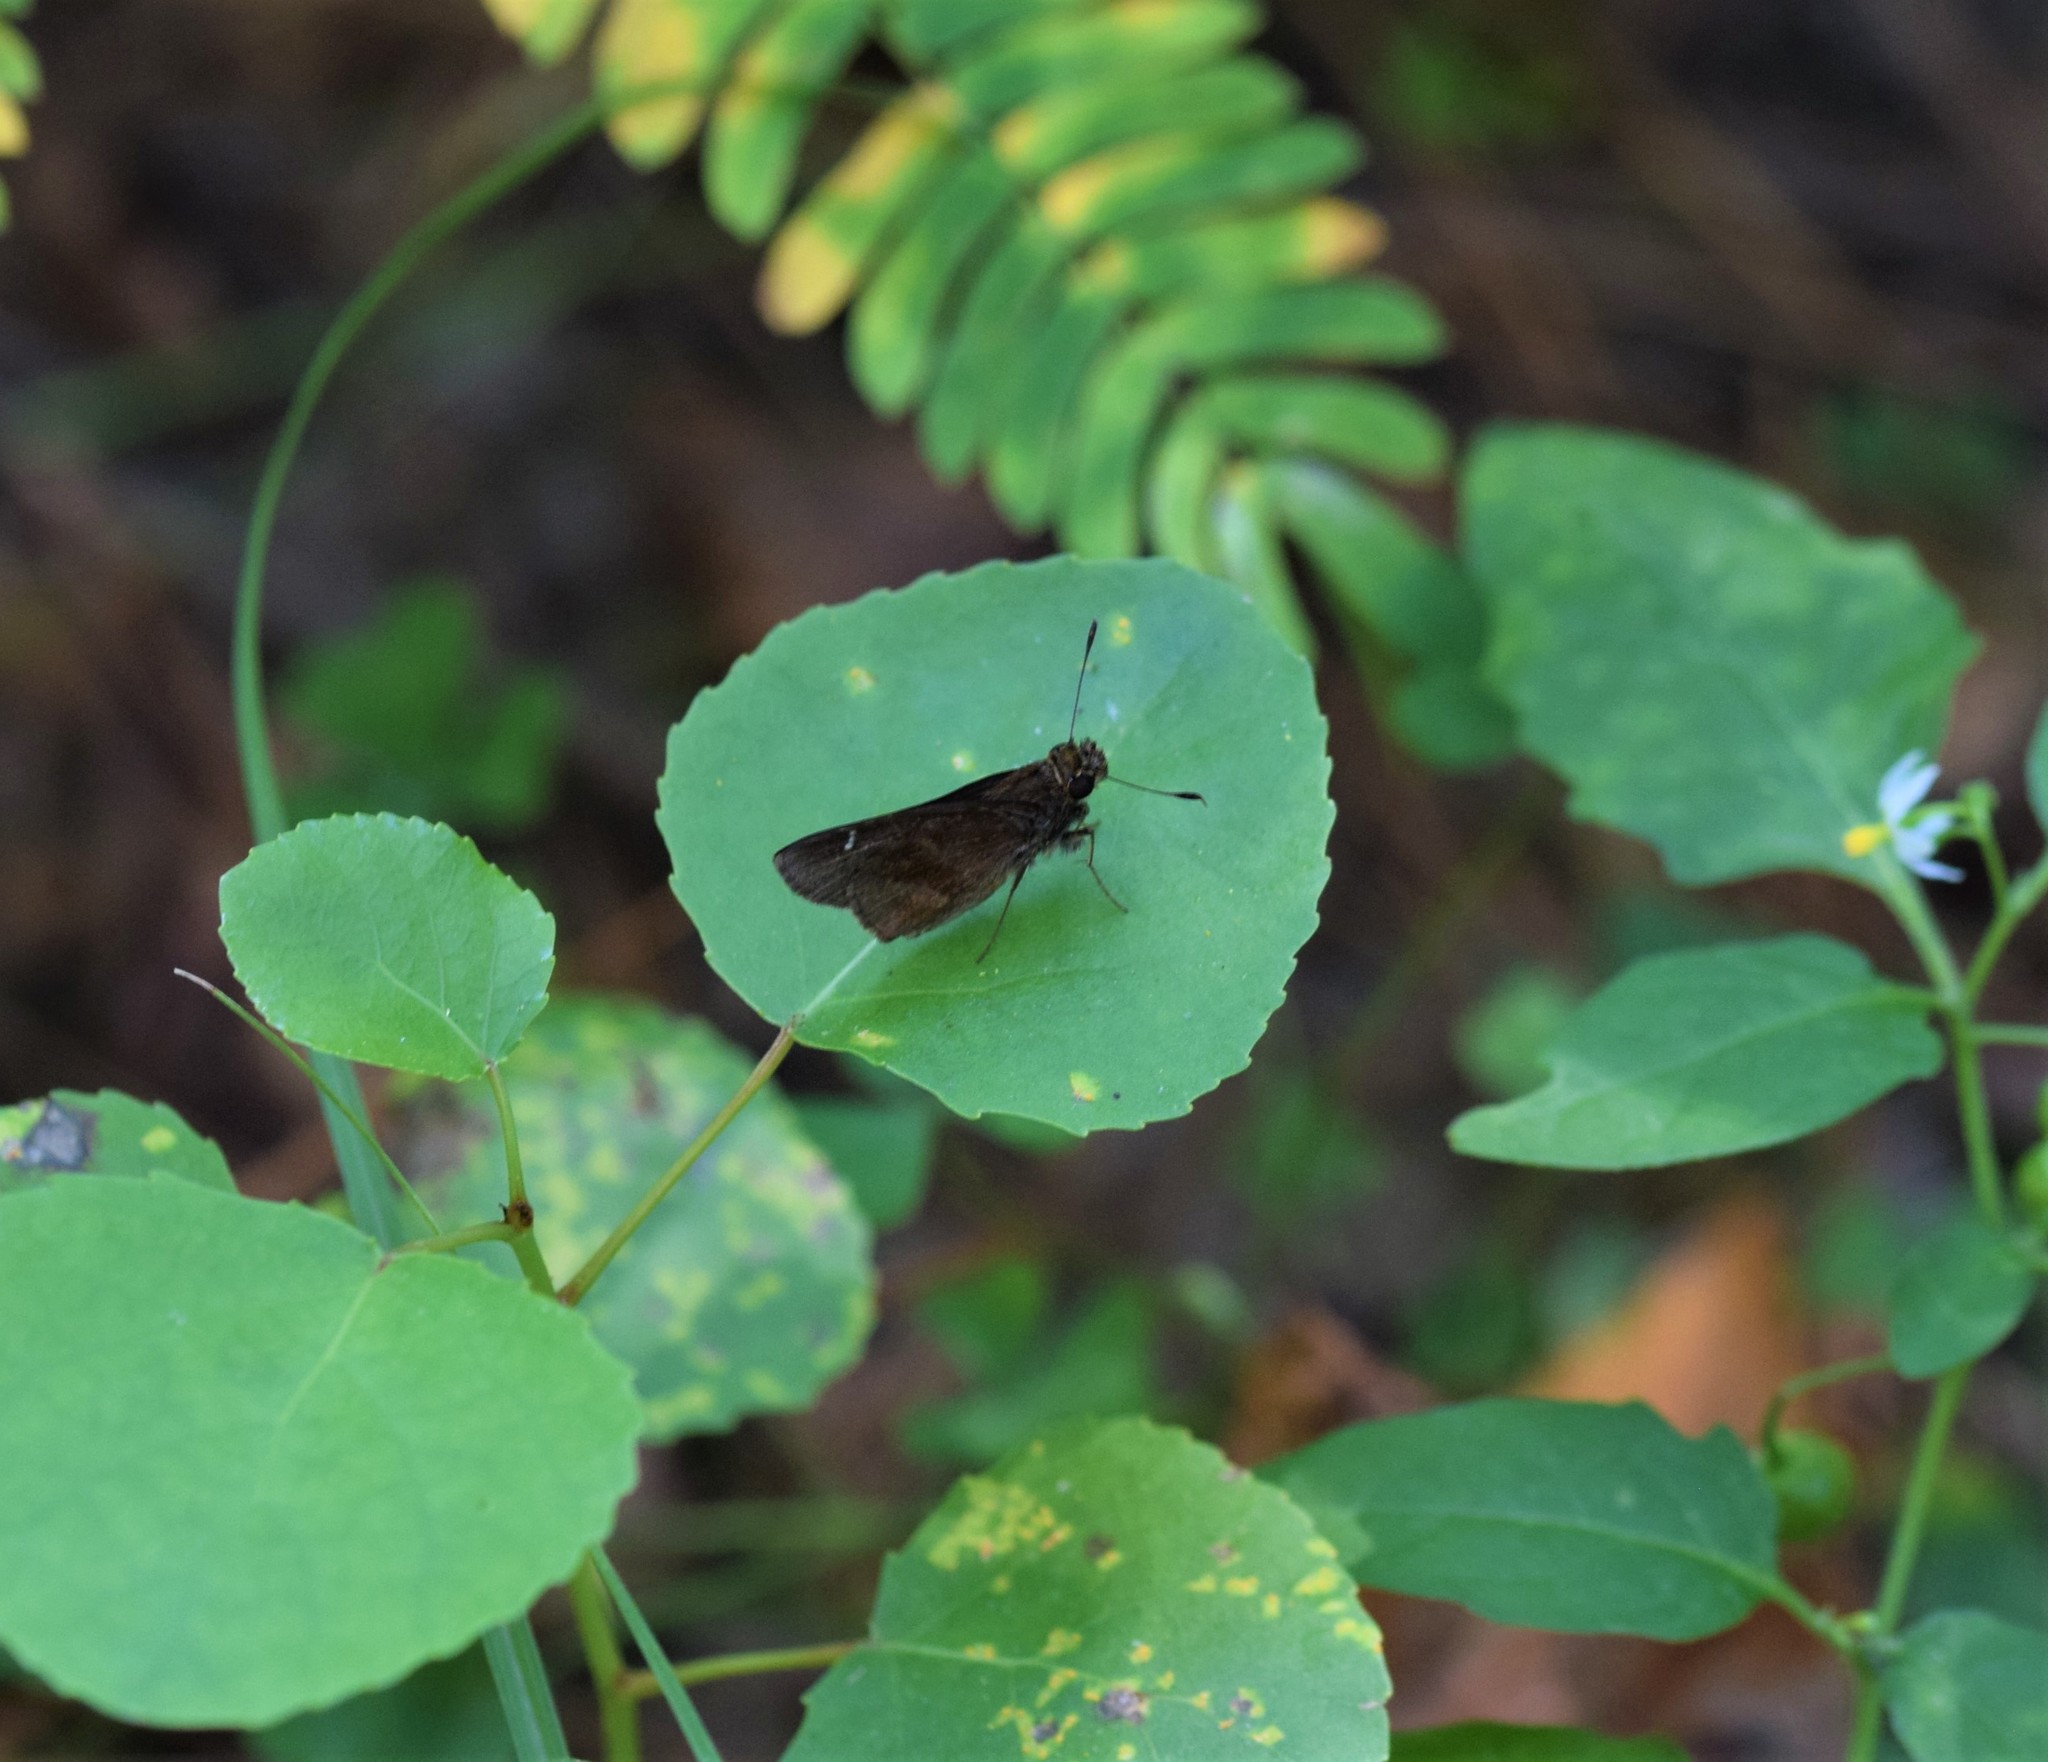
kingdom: Animalia
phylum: Arthropoda
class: Insecta
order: Lepidoptera
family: Hesperiidae
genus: Lerema
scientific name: Lerema accius
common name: Clouded skipper
